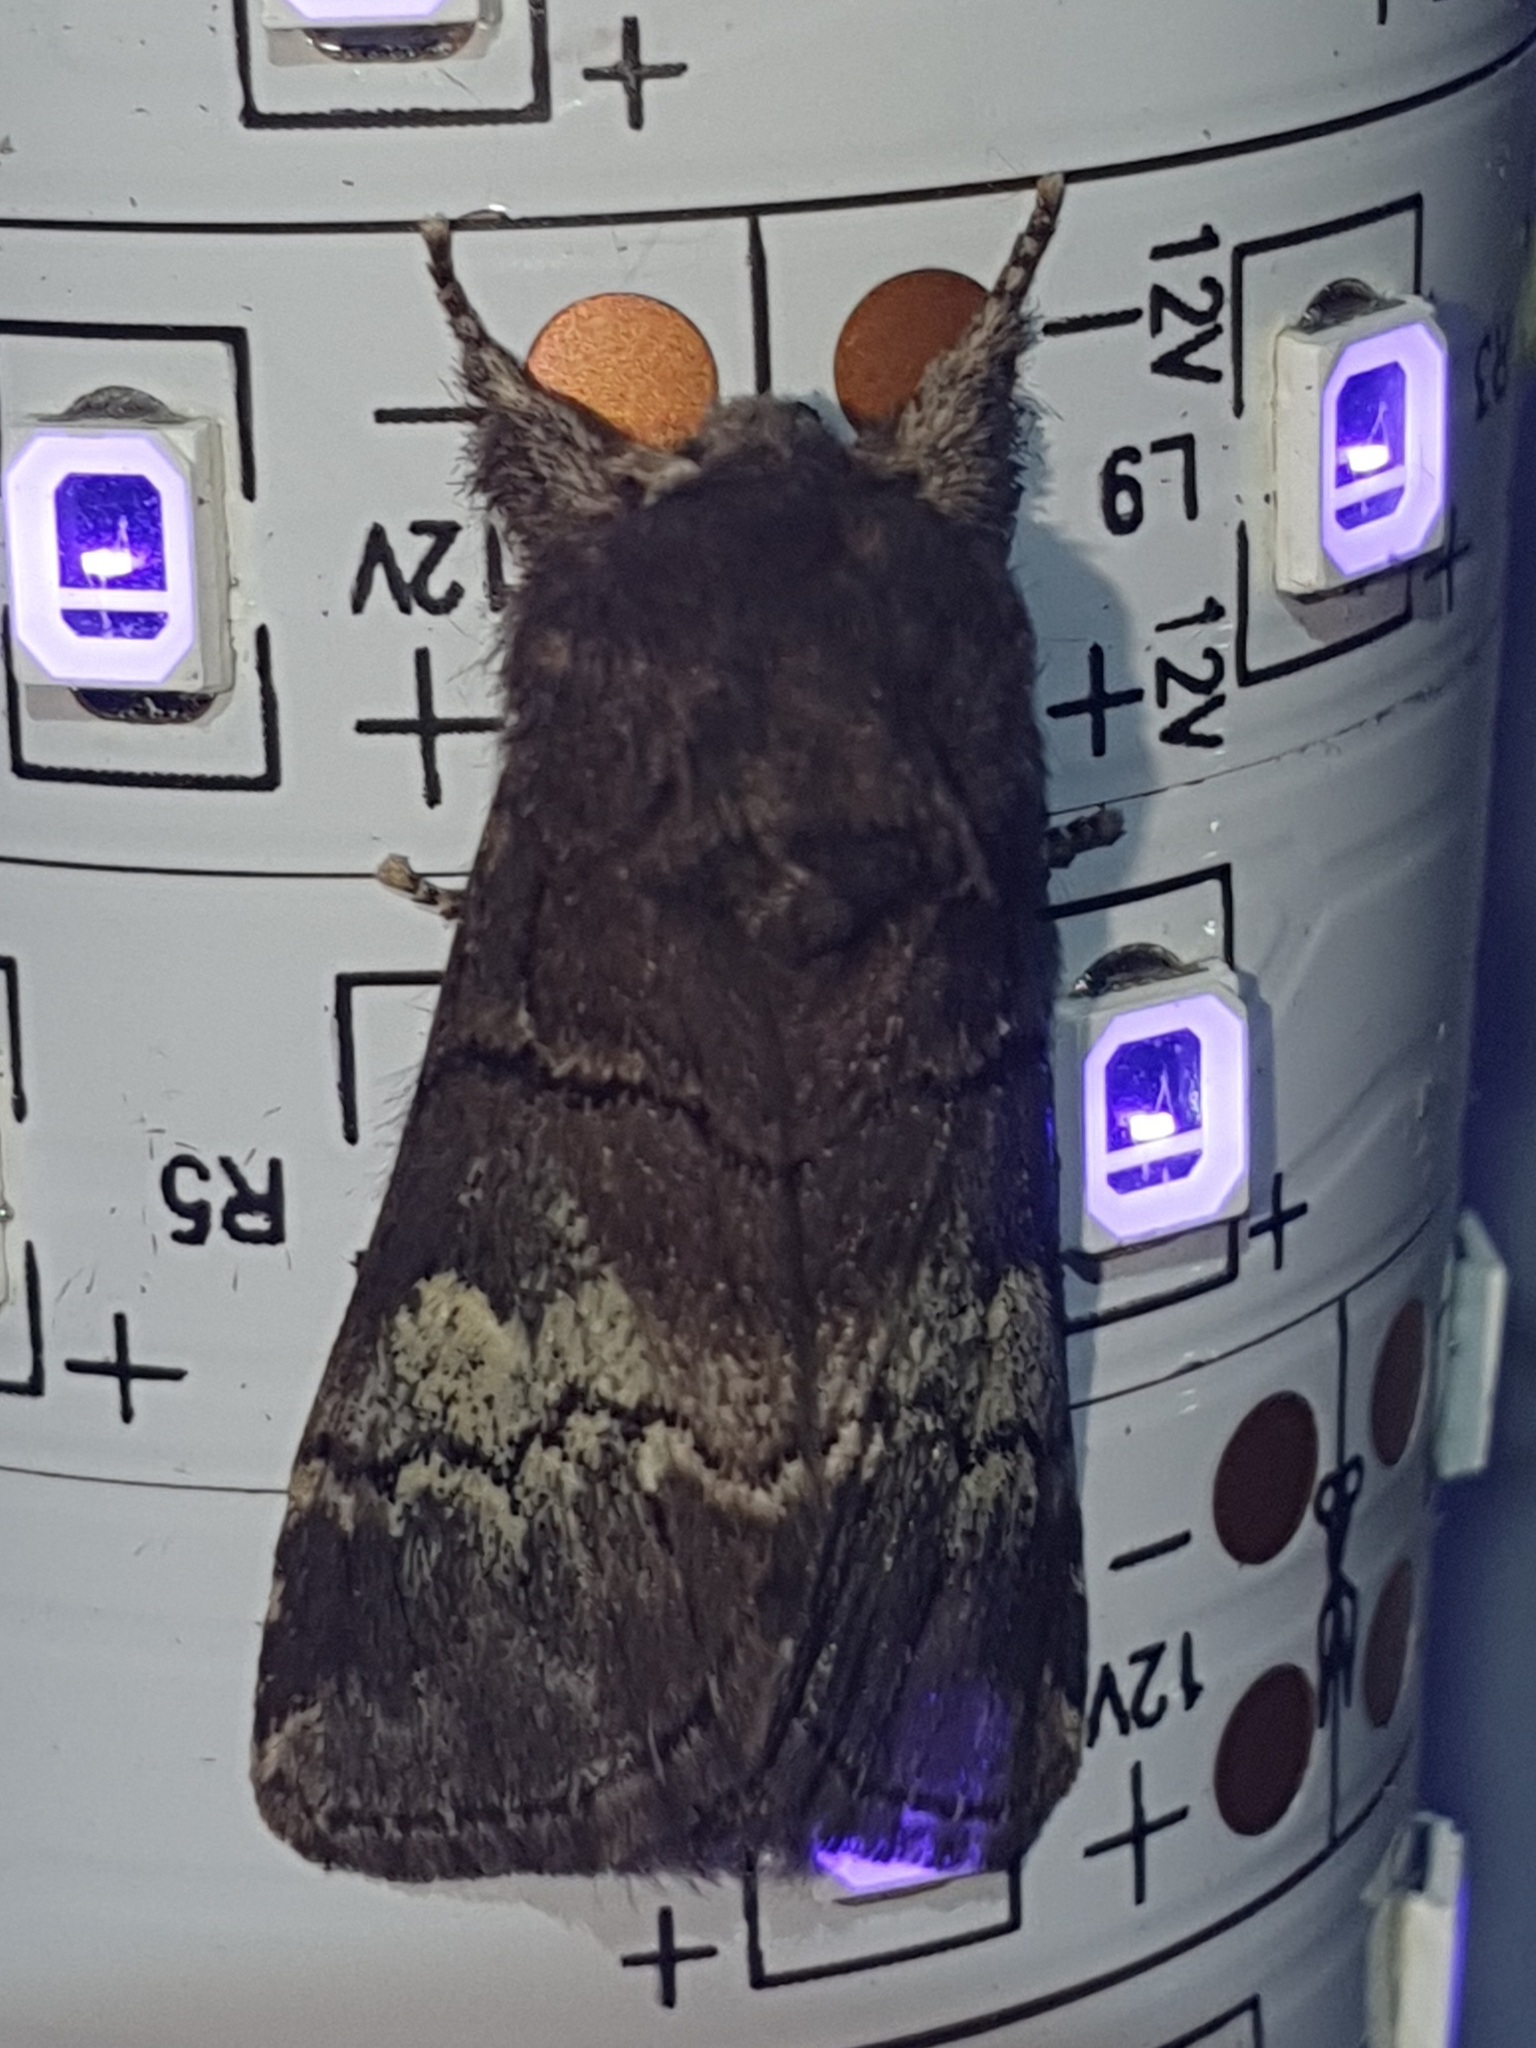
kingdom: Animalia
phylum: Arthropoda
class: Insecta
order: Lepidoptera
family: Notodontidae
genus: Drymonia
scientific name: Drymonia querna
